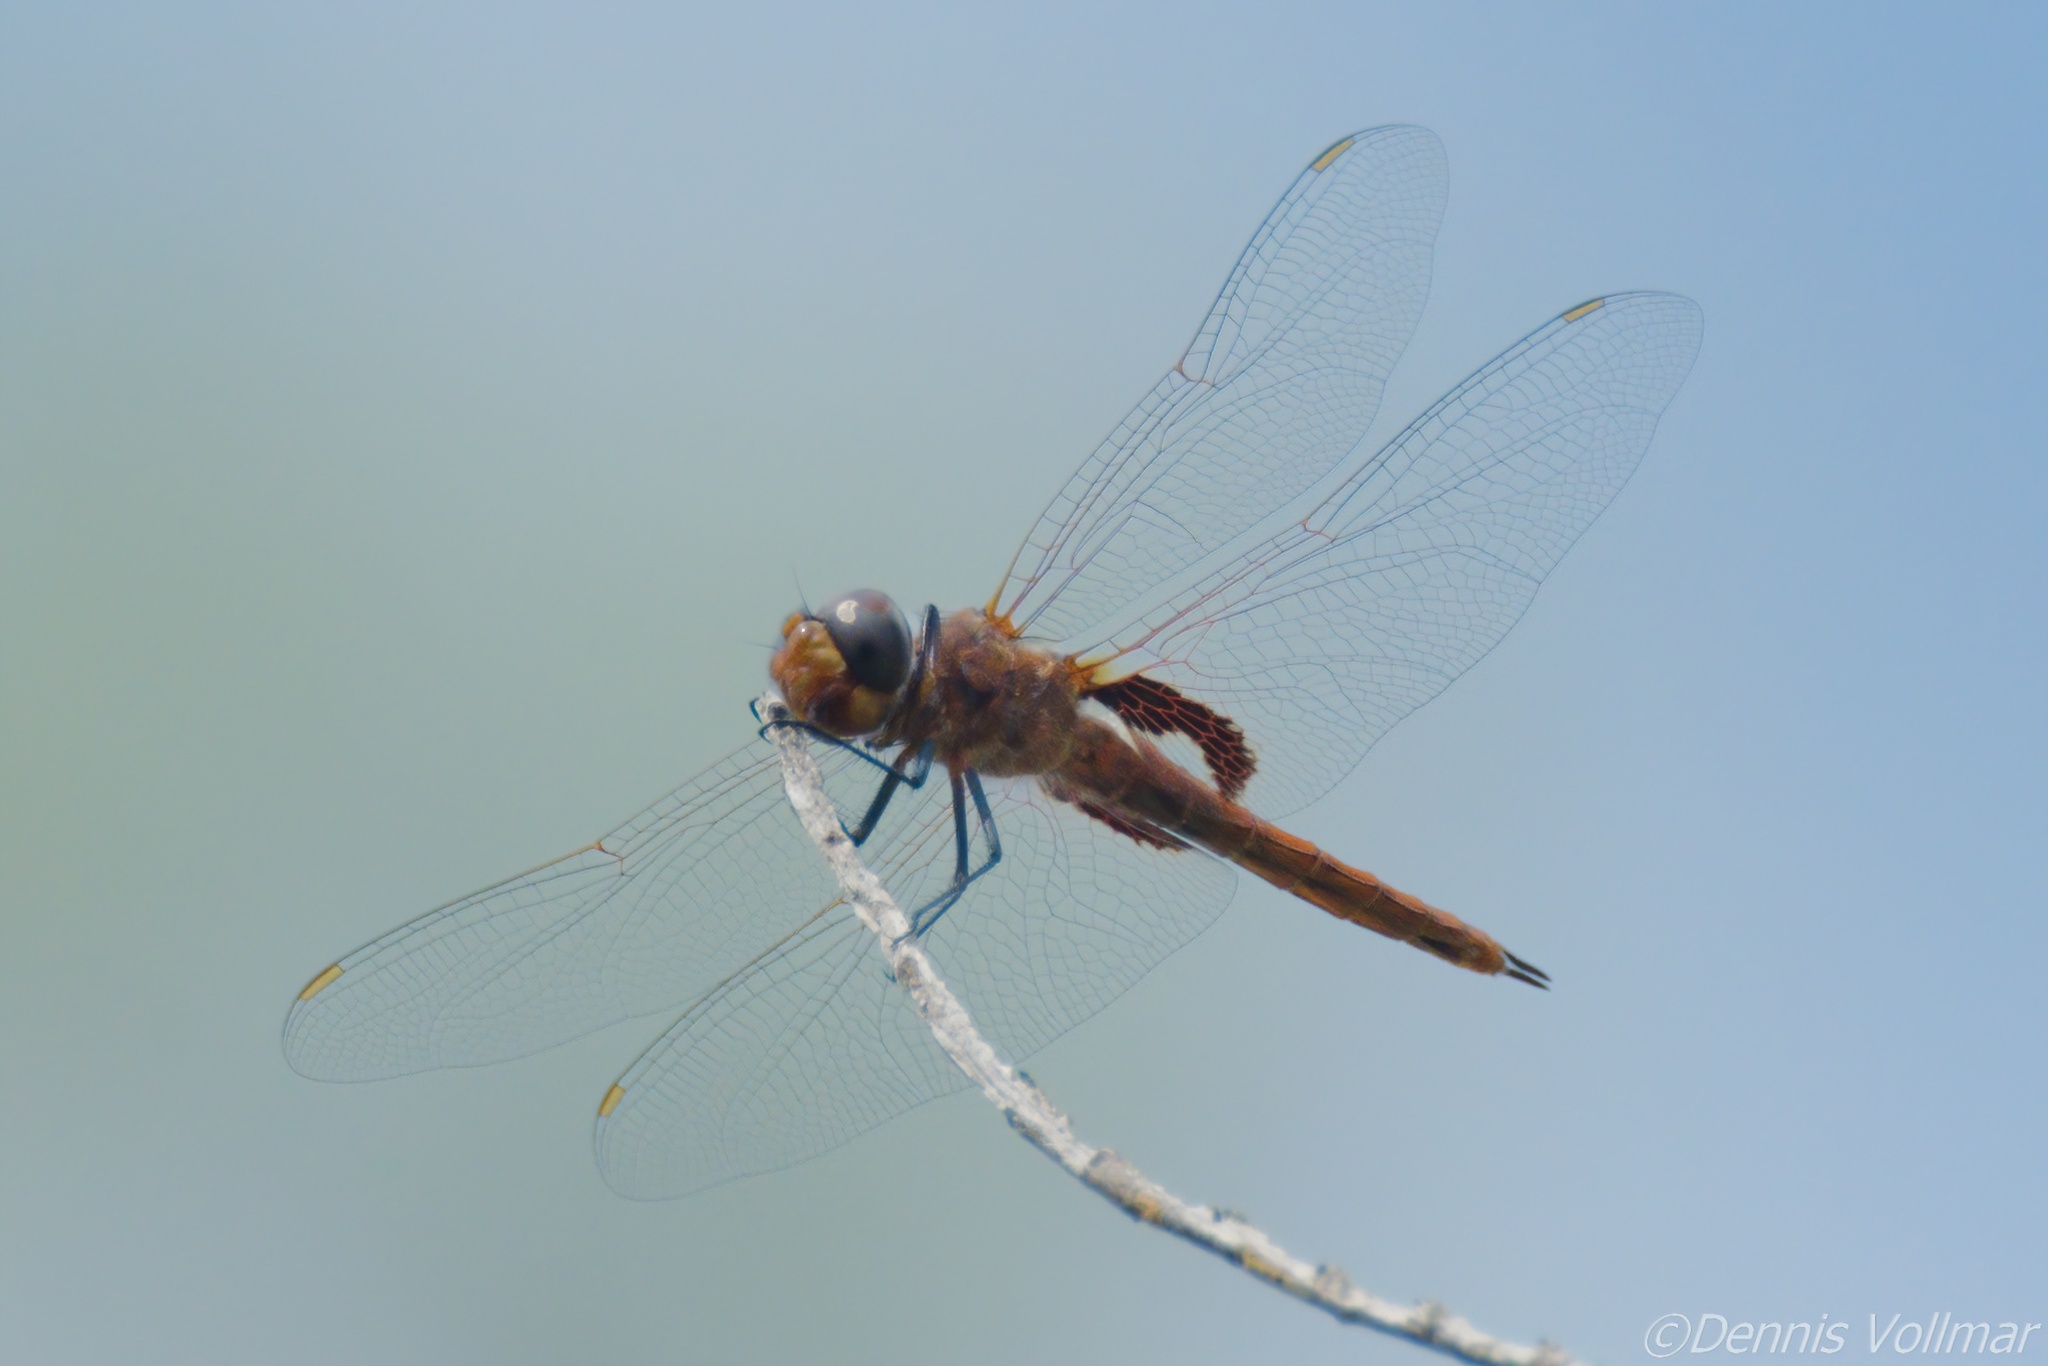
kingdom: Animalia
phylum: Arthropoda
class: Insecta
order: Odonata
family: Libellulidae
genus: Tramea
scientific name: Tramea insularis
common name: Antillean saddlebags
